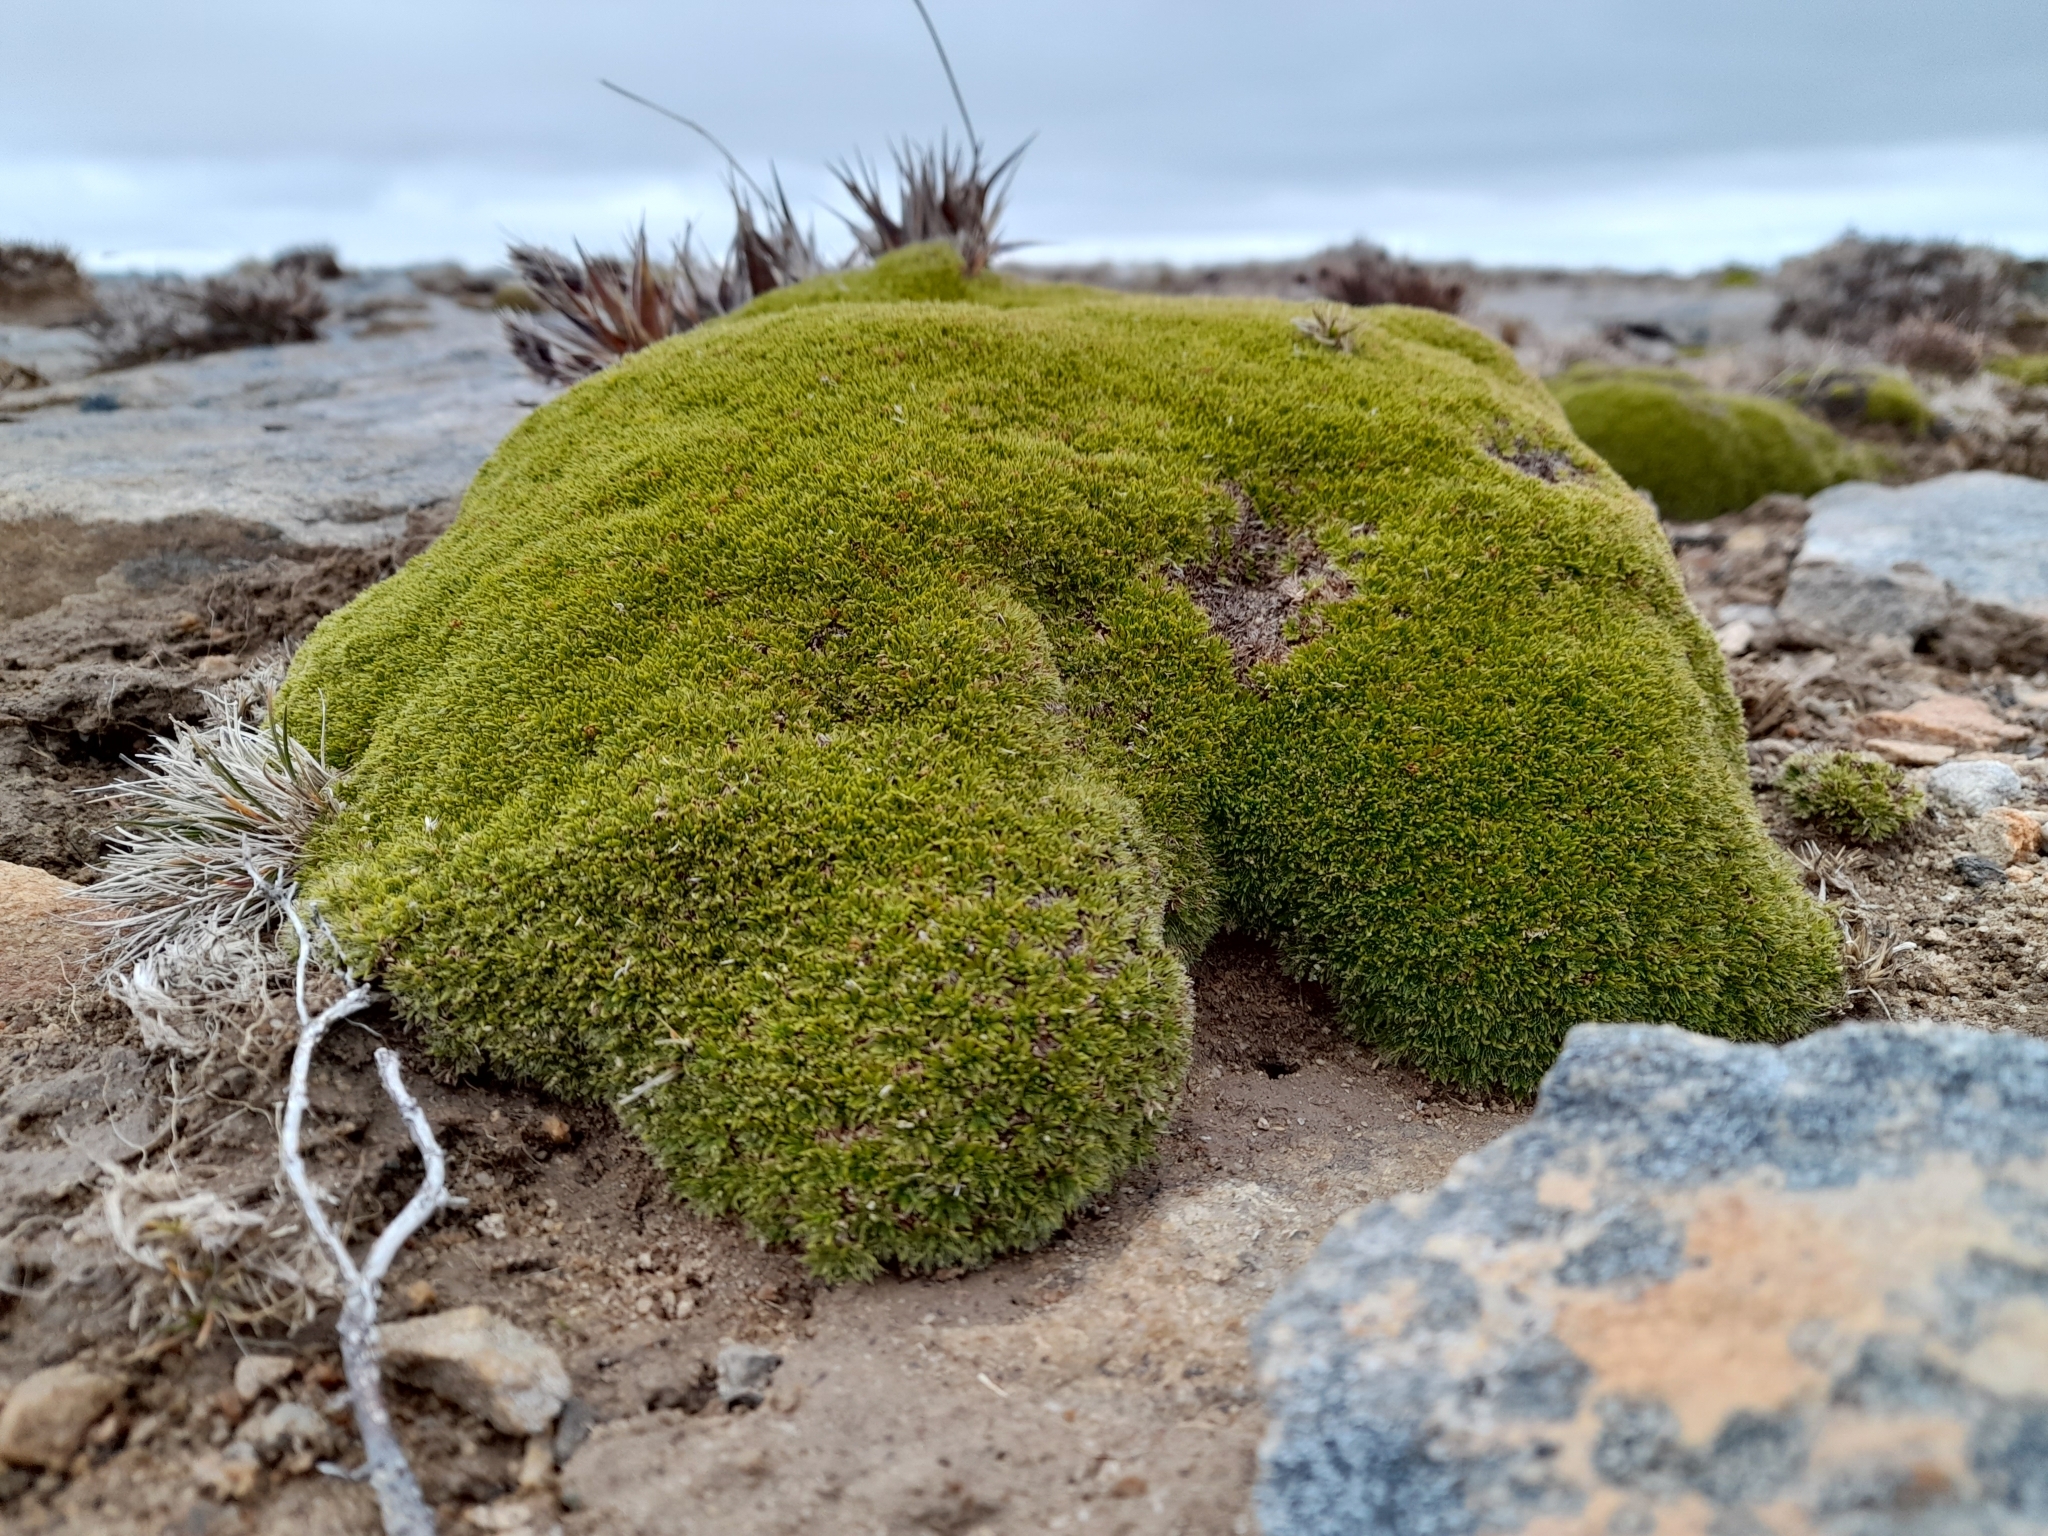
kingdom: Plantae
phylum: Tracheophyta
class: Magnoliopsida
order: Apiales
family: Apiaceae
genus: Azorella
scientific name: Azorella selago
